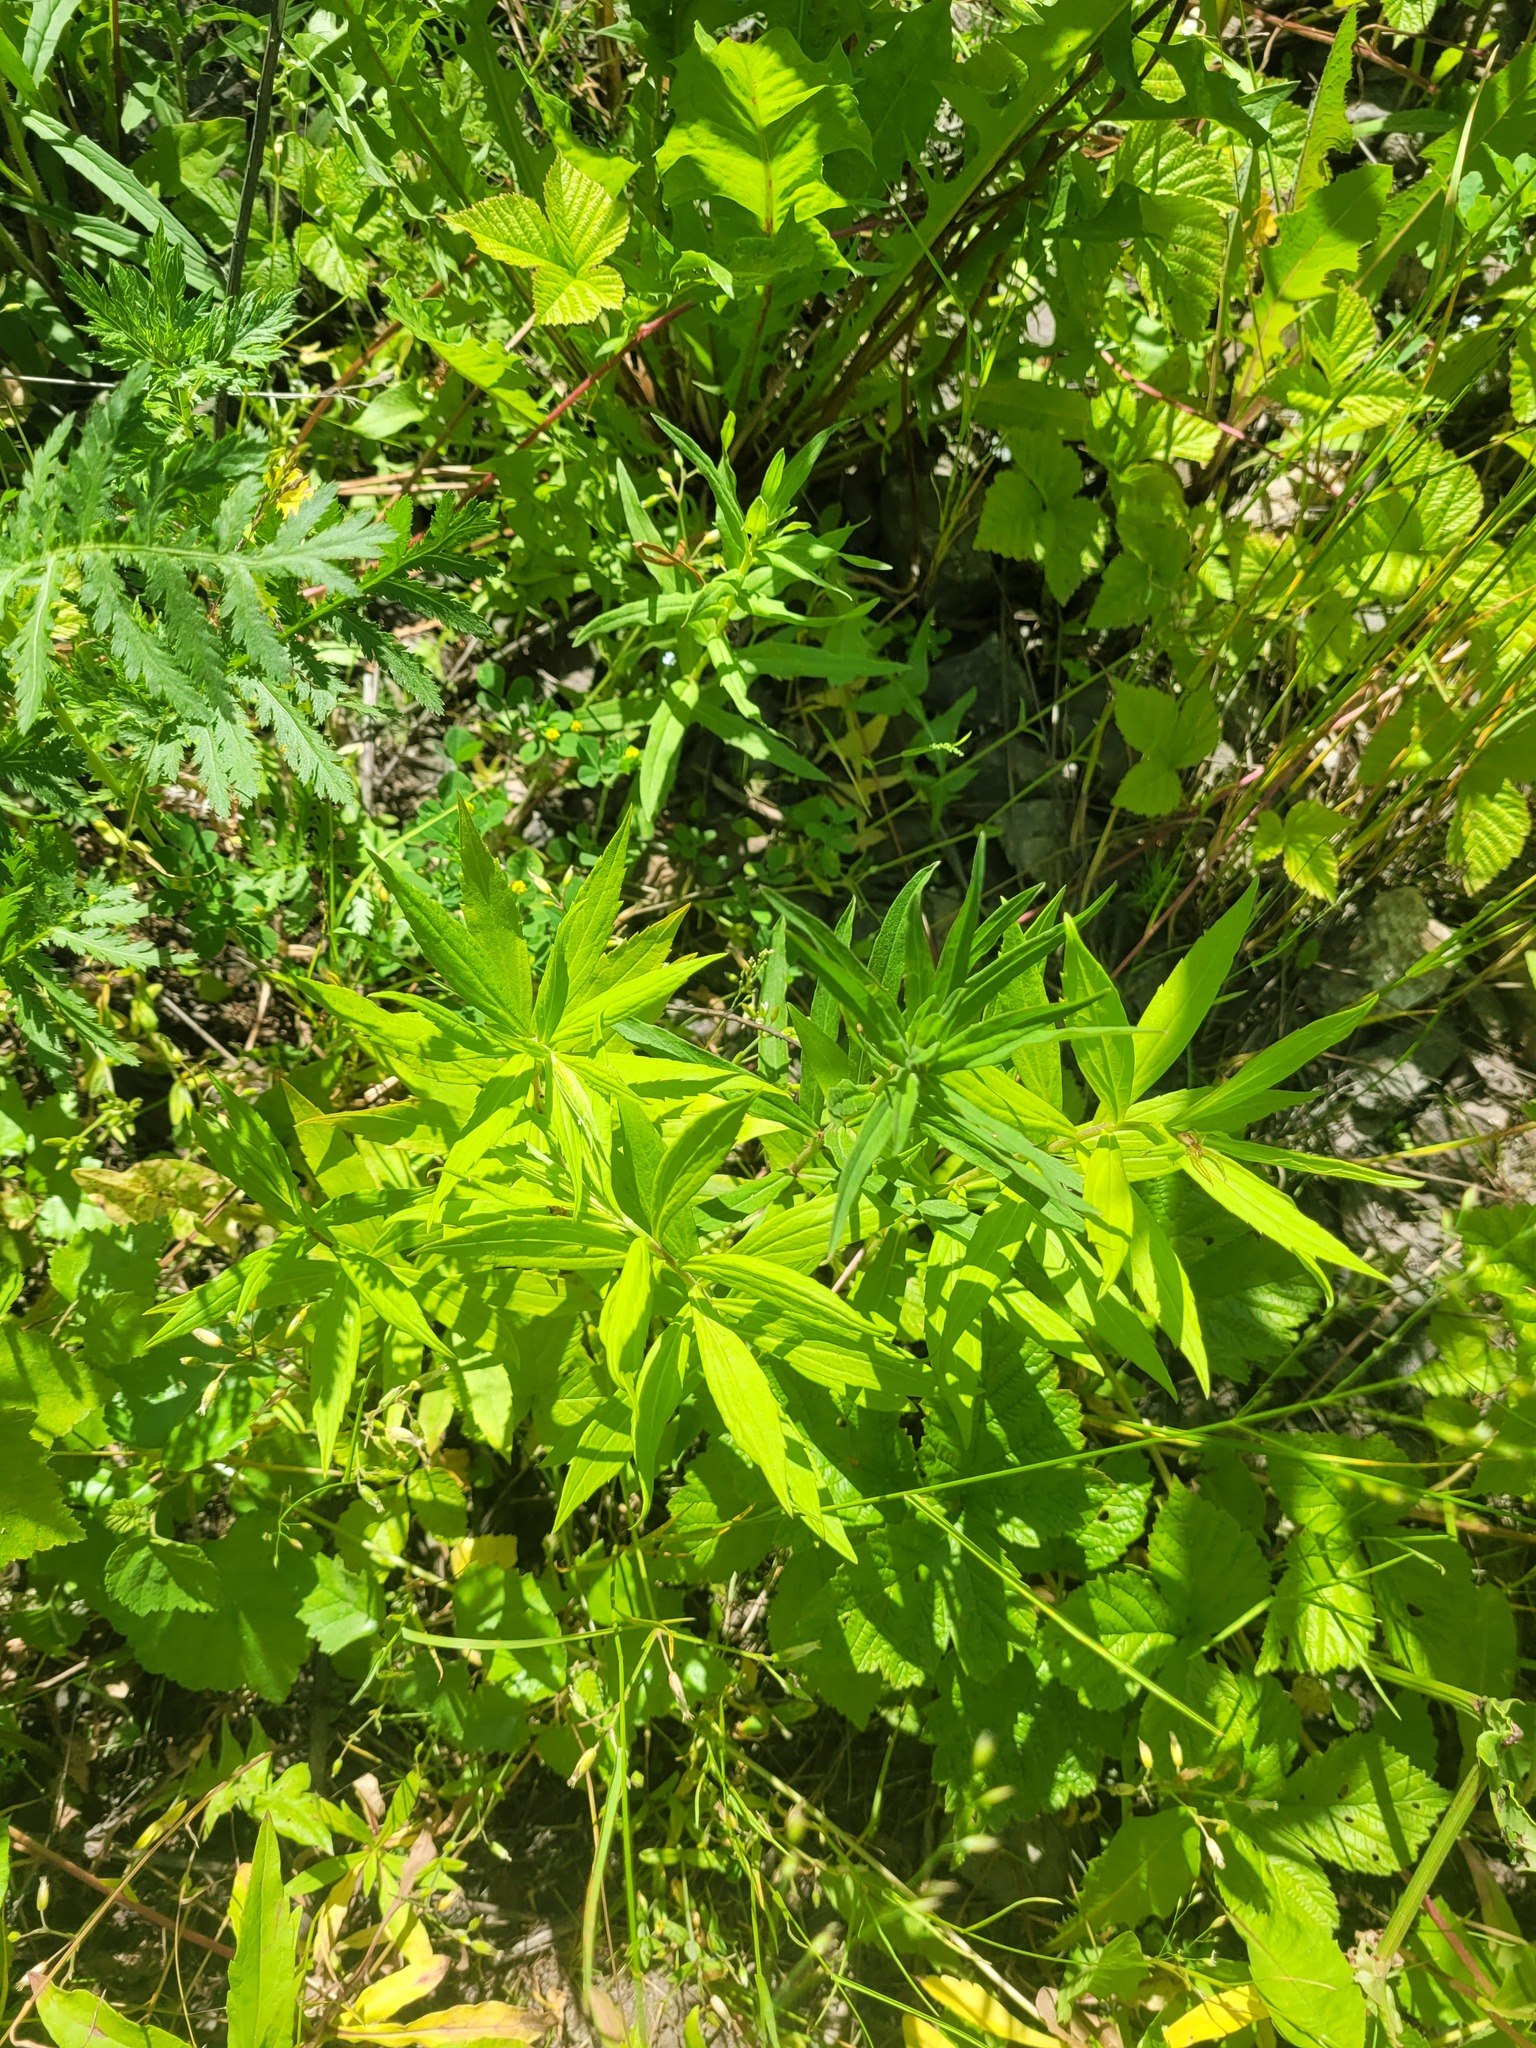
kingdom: Plantae
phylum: Tracheophyta
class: Magnoliopsida
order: Asterales
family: Asteraceae
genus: Solidago
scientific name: Solidago canadensis
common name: Canada goldenrod
